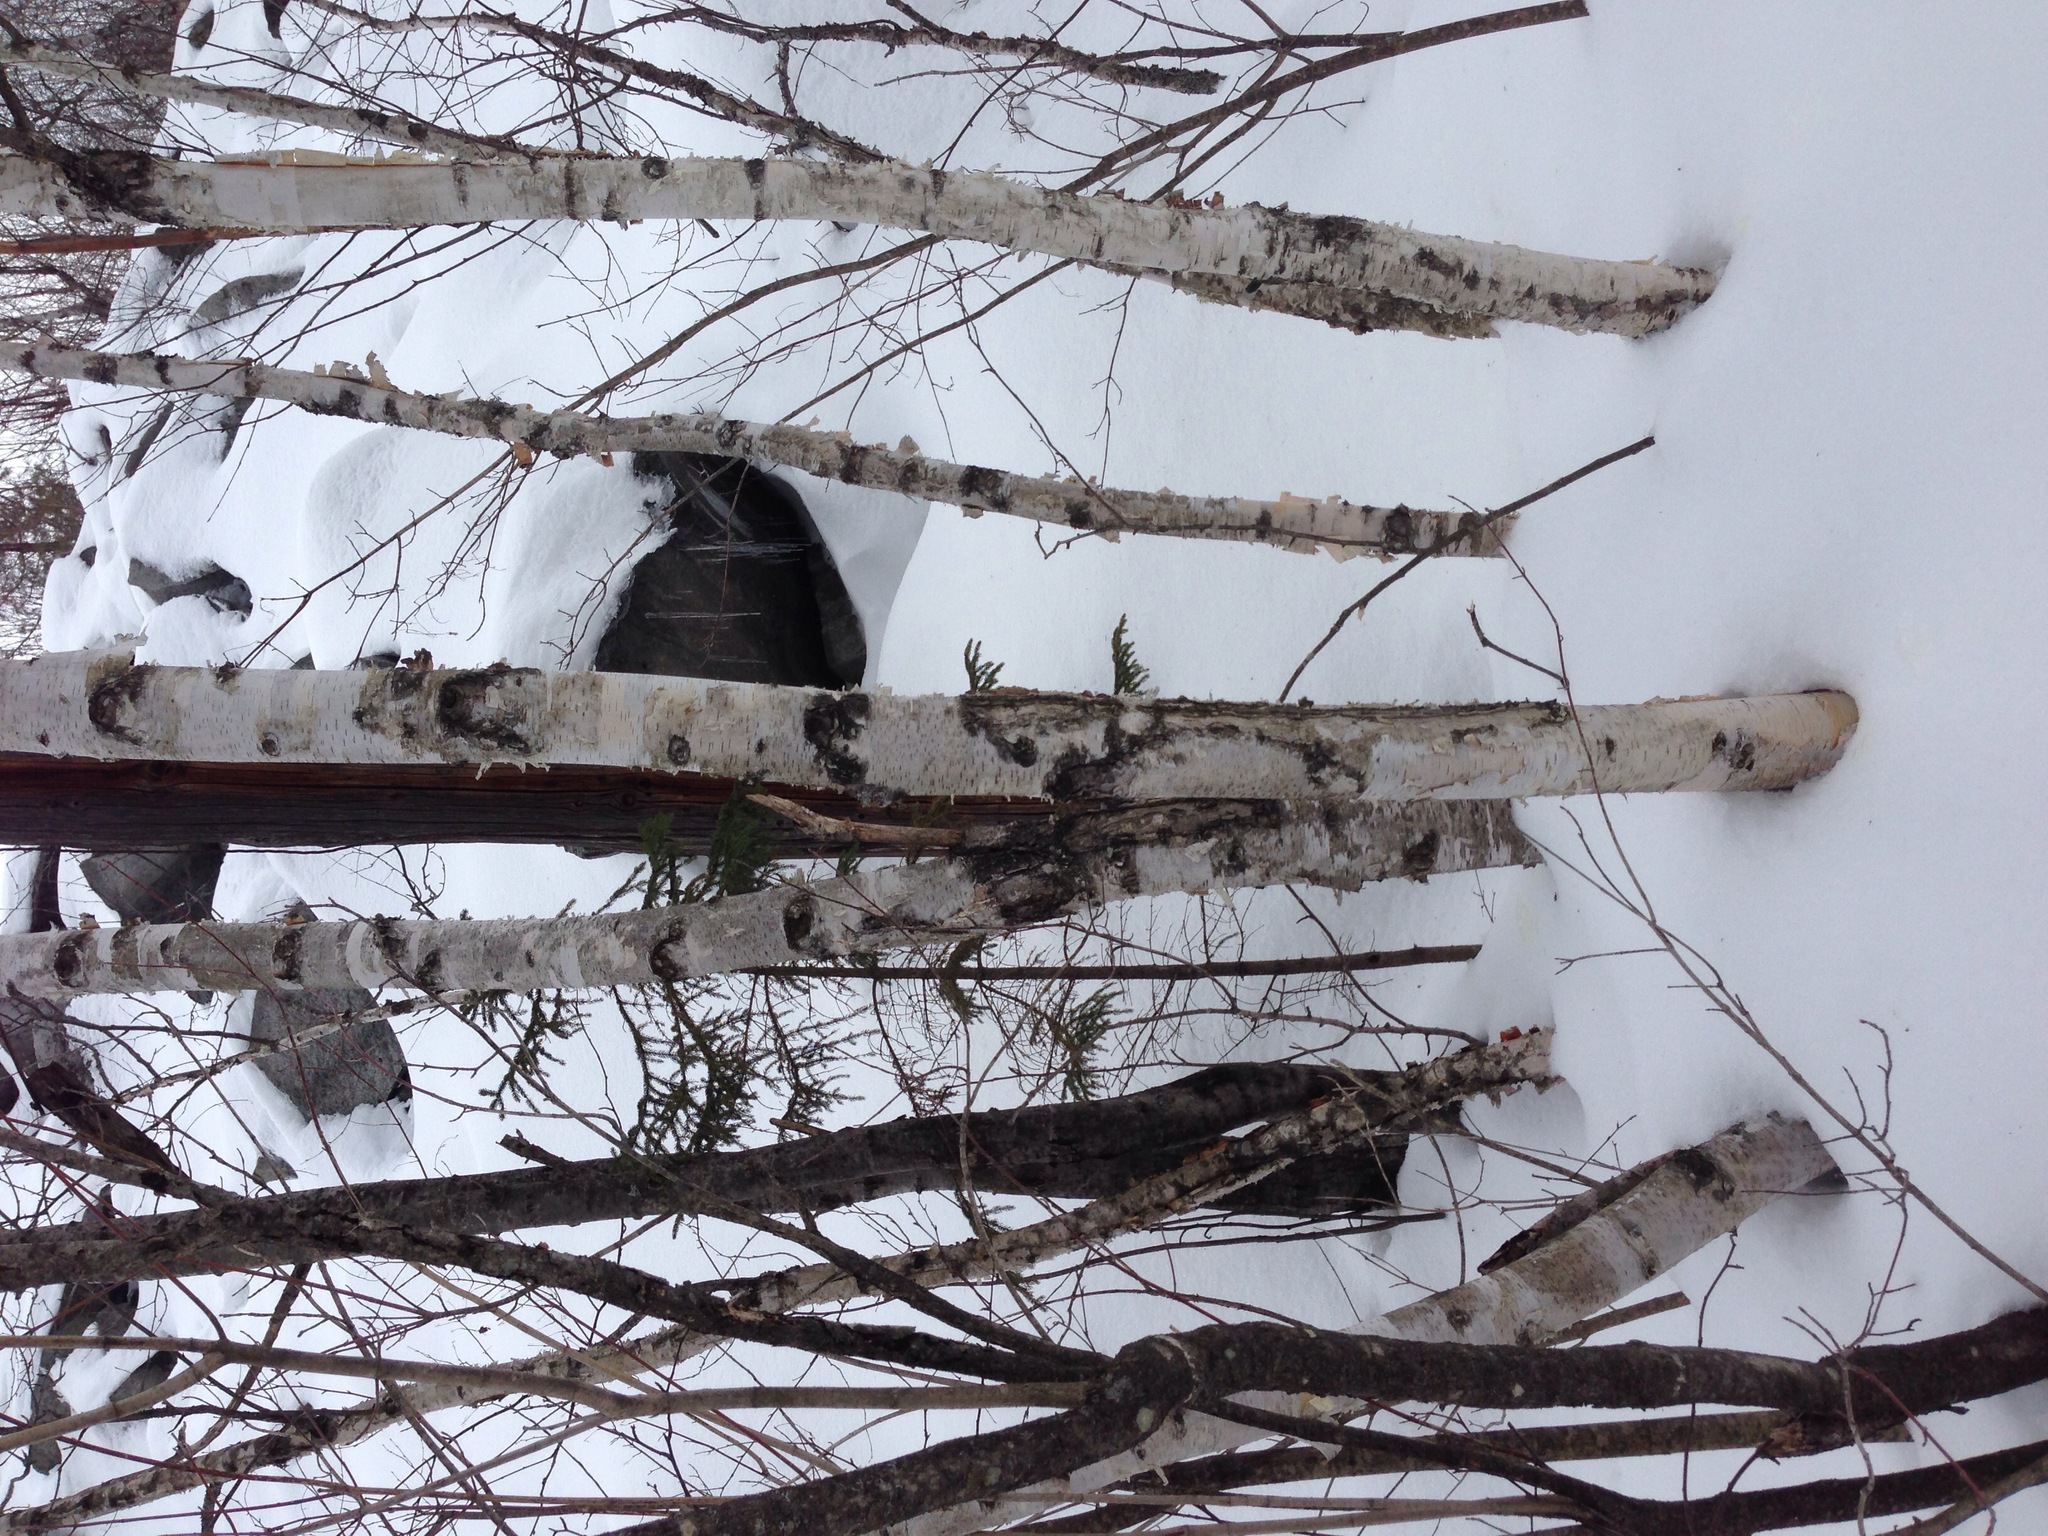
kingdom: Plantae
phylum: Tracheophyta
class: Magnoliopsida
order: Fagales
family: Betulaceae
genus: Betula
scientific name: Betula papyrifera
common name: Paper birch
